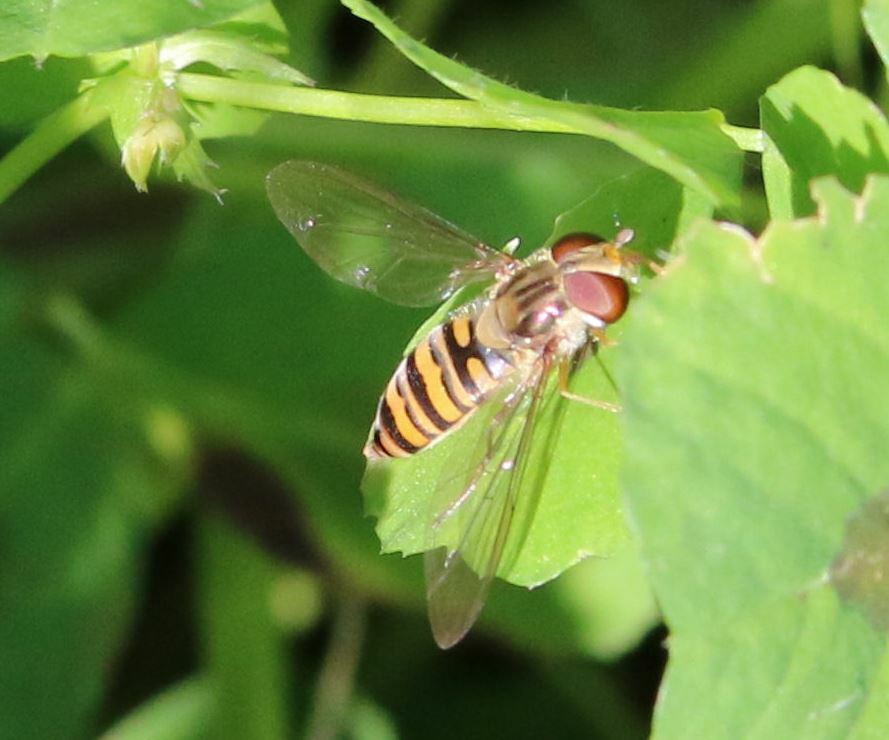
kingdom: Animalia
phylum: Arthropoda
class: Insecta
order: Diptera
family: Syrphidae
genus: Episyrphus
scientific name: Episyrphus balteatus
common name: Marmalade hoverfly
